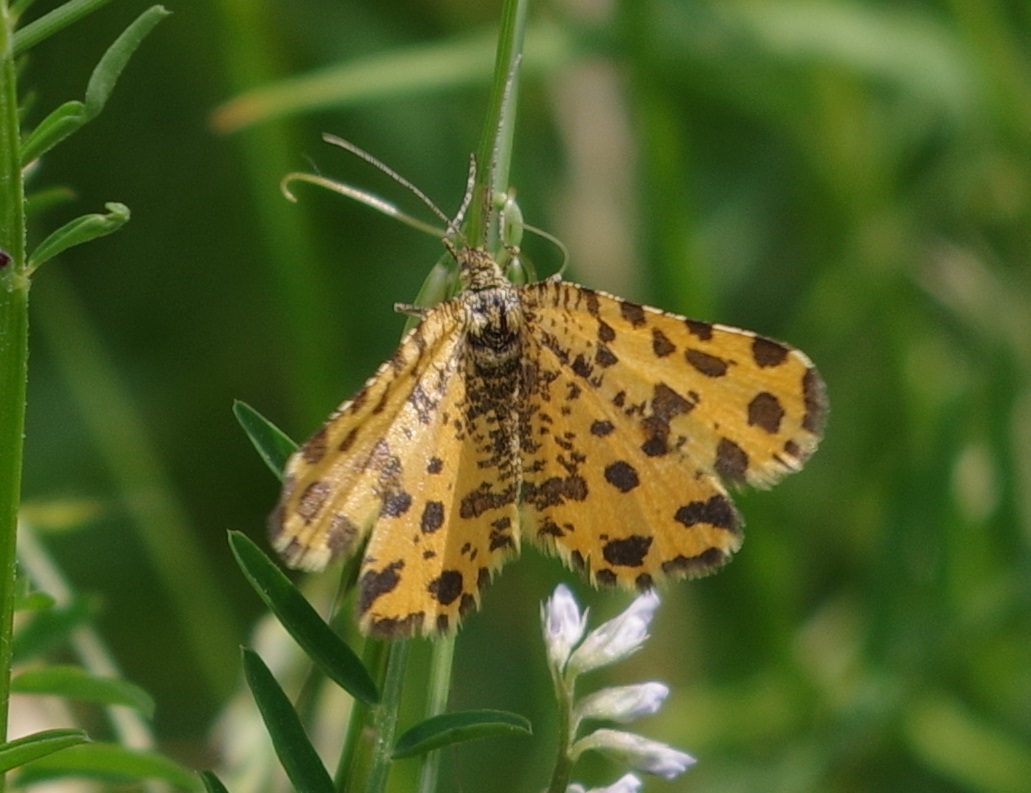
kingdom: Animalia
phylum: Arthropoda
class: Insecta
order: Lepidoptera
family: Geometridae
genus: Pseudopanthera
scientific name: Pseudopanthera macularia
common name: Speckled yellow
